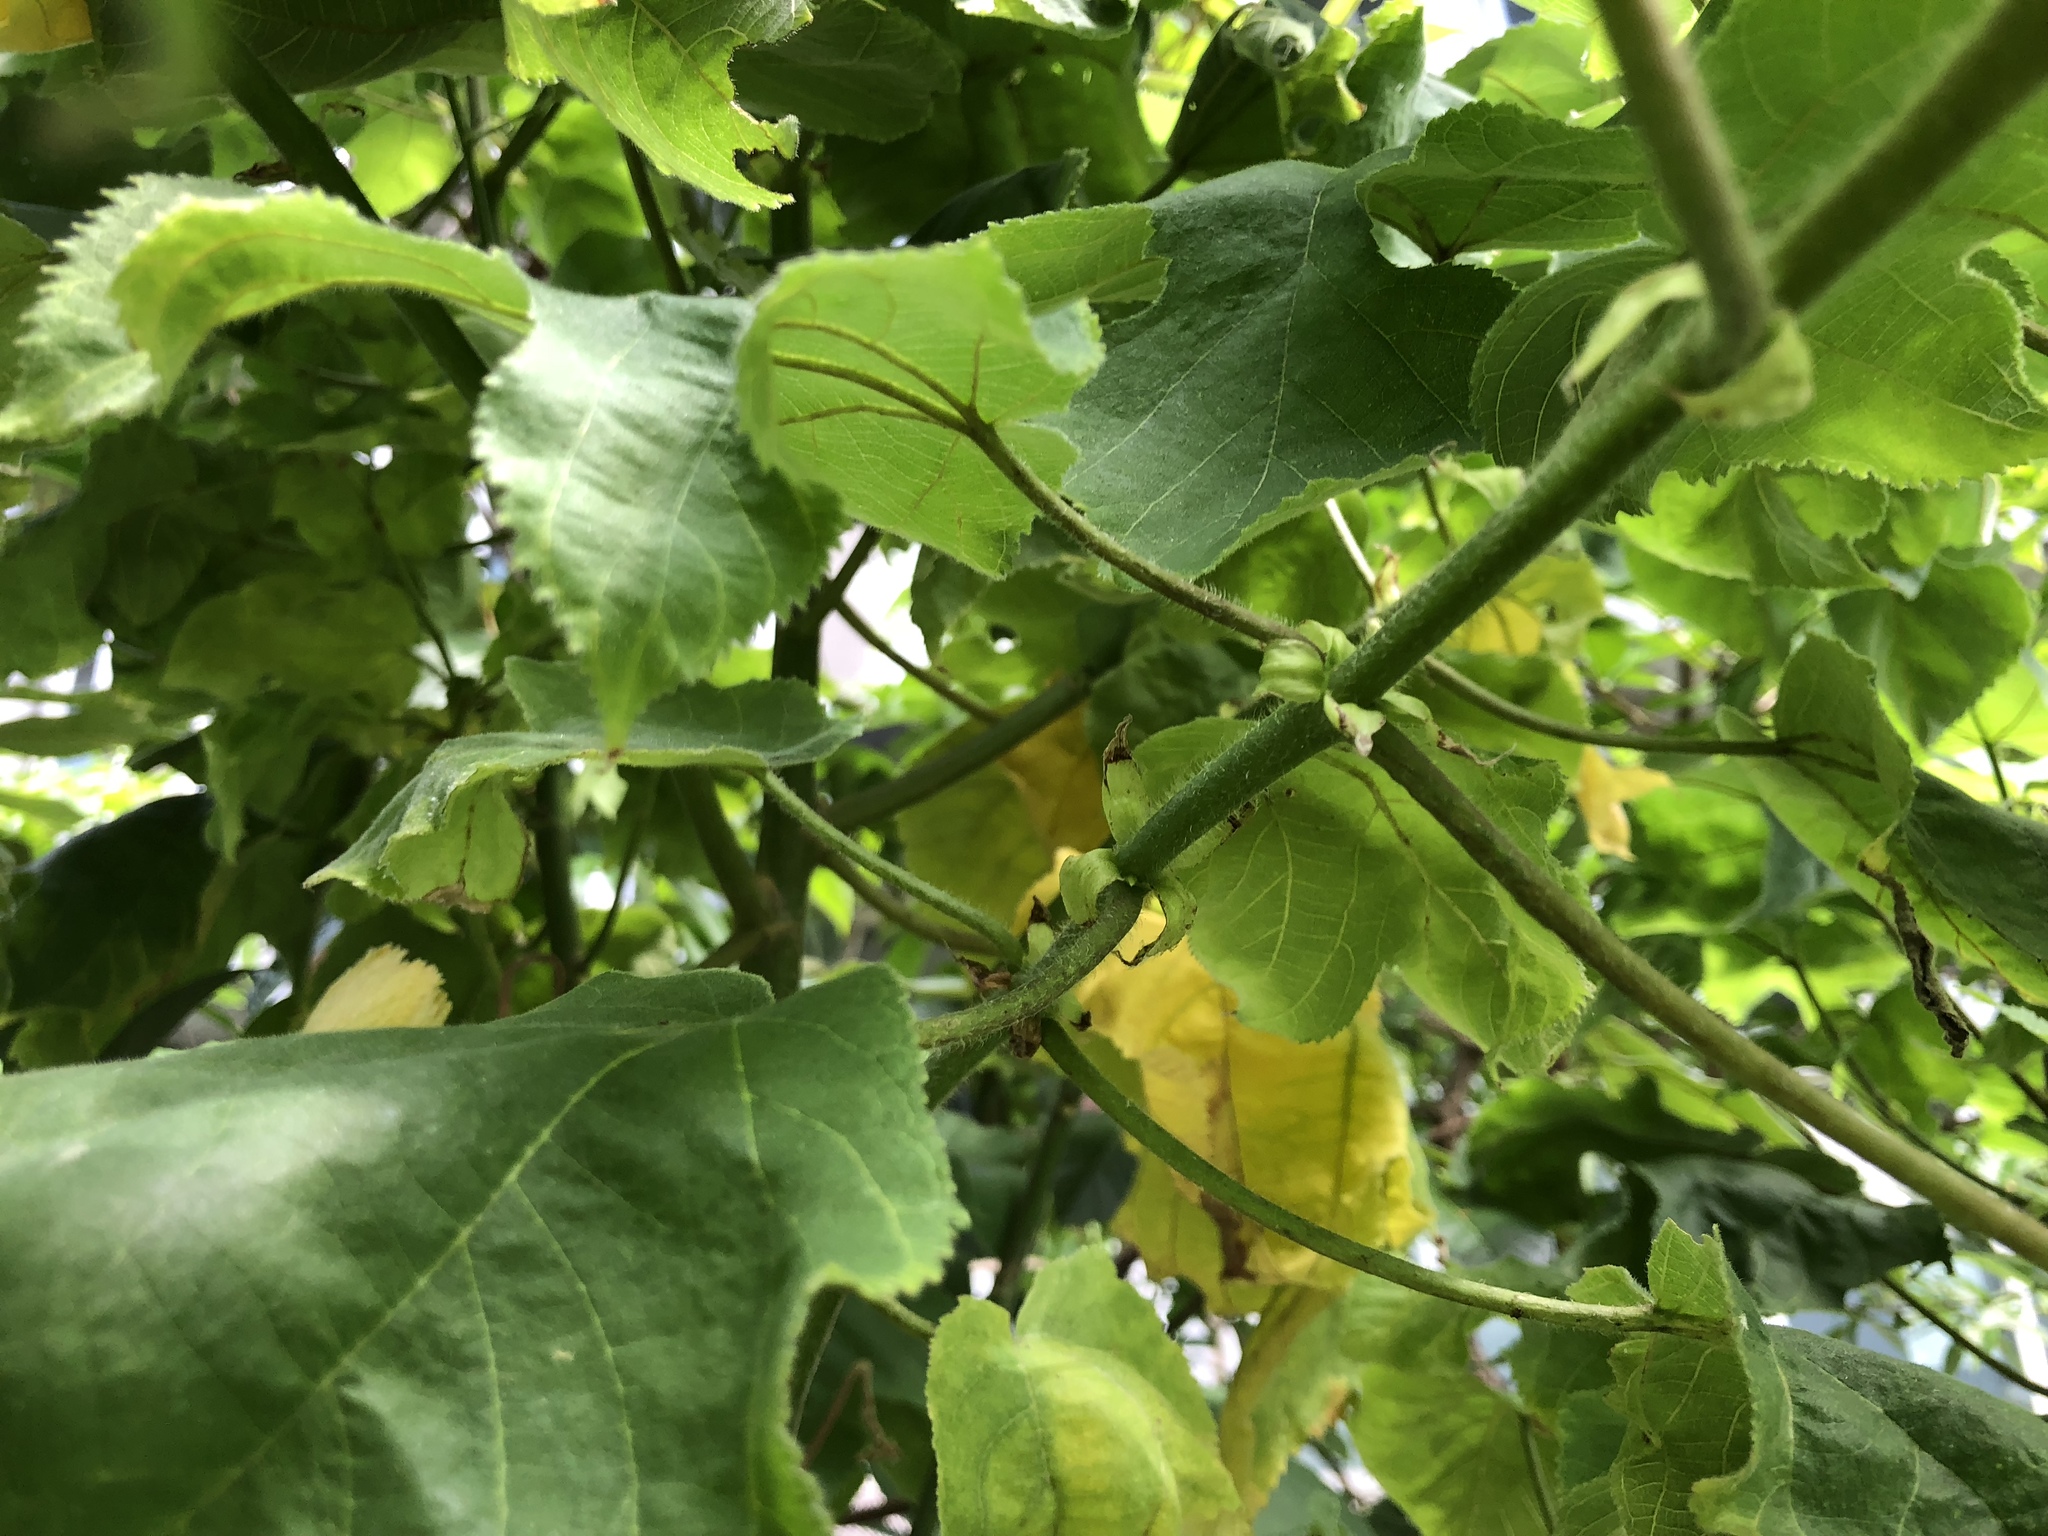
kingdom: Plantae
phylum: Tracheophyta
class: Magnoliopsida
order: Rosales
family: Moraceae
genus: Broussonetia
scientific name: Broussonetia papyrifera
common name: Paper mulberry
